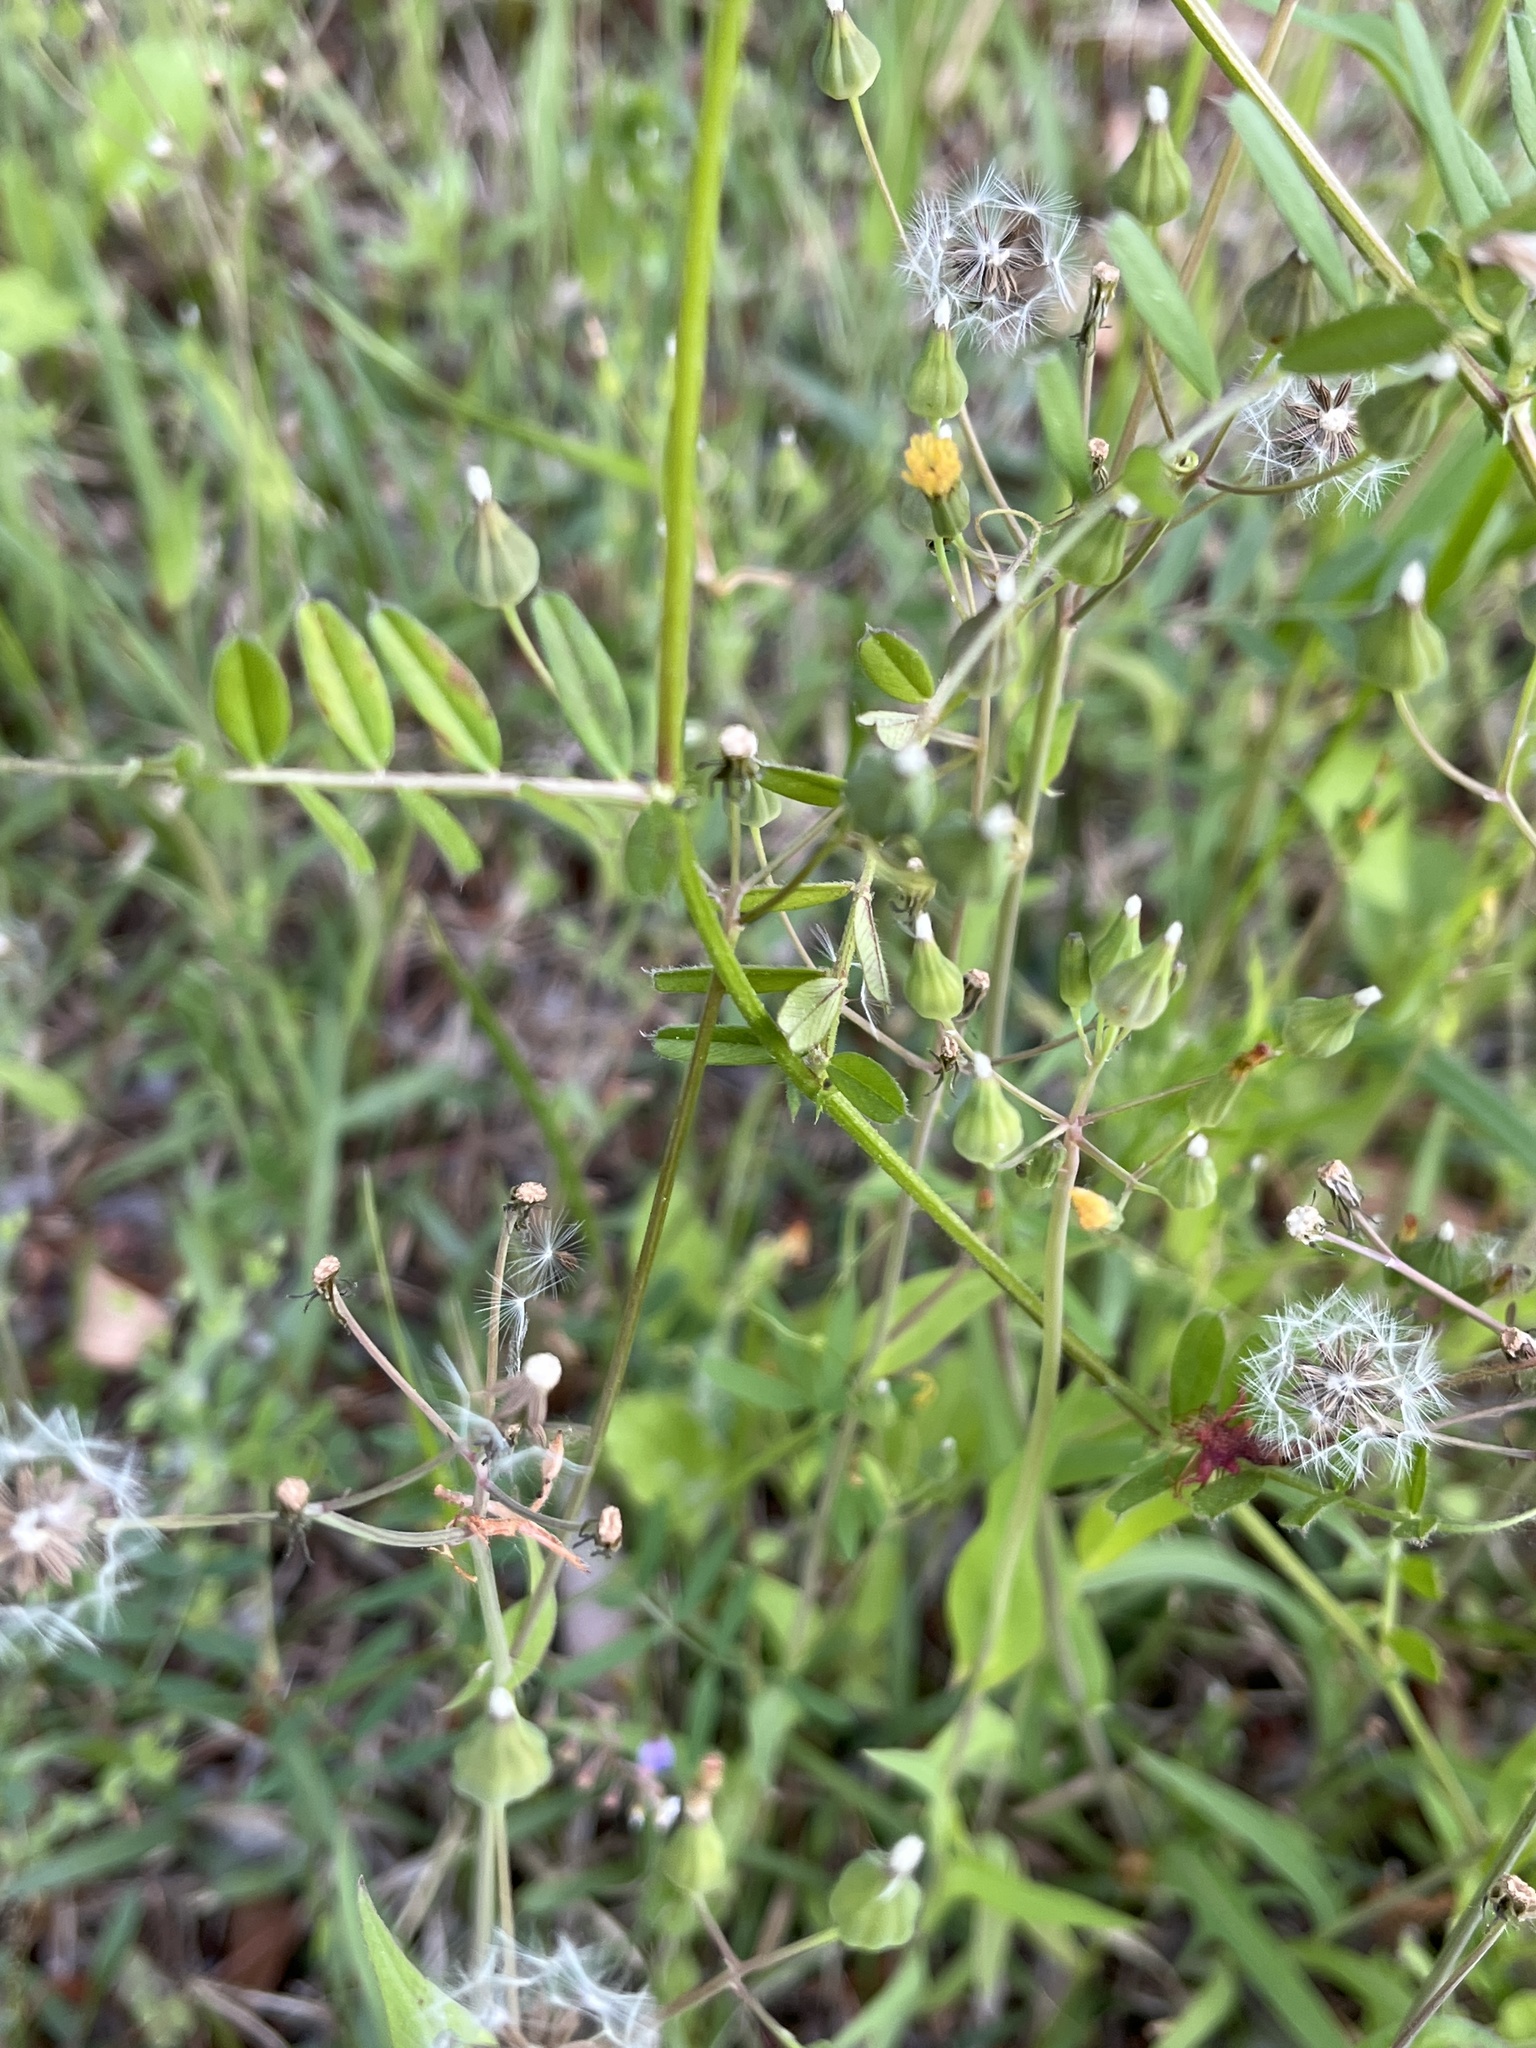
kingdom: Plantae
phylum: Tracheophyta
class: Magnoliopsida
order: Asterales
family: Asteraceae
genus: Ixeris
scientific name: Ixeris polycephala
